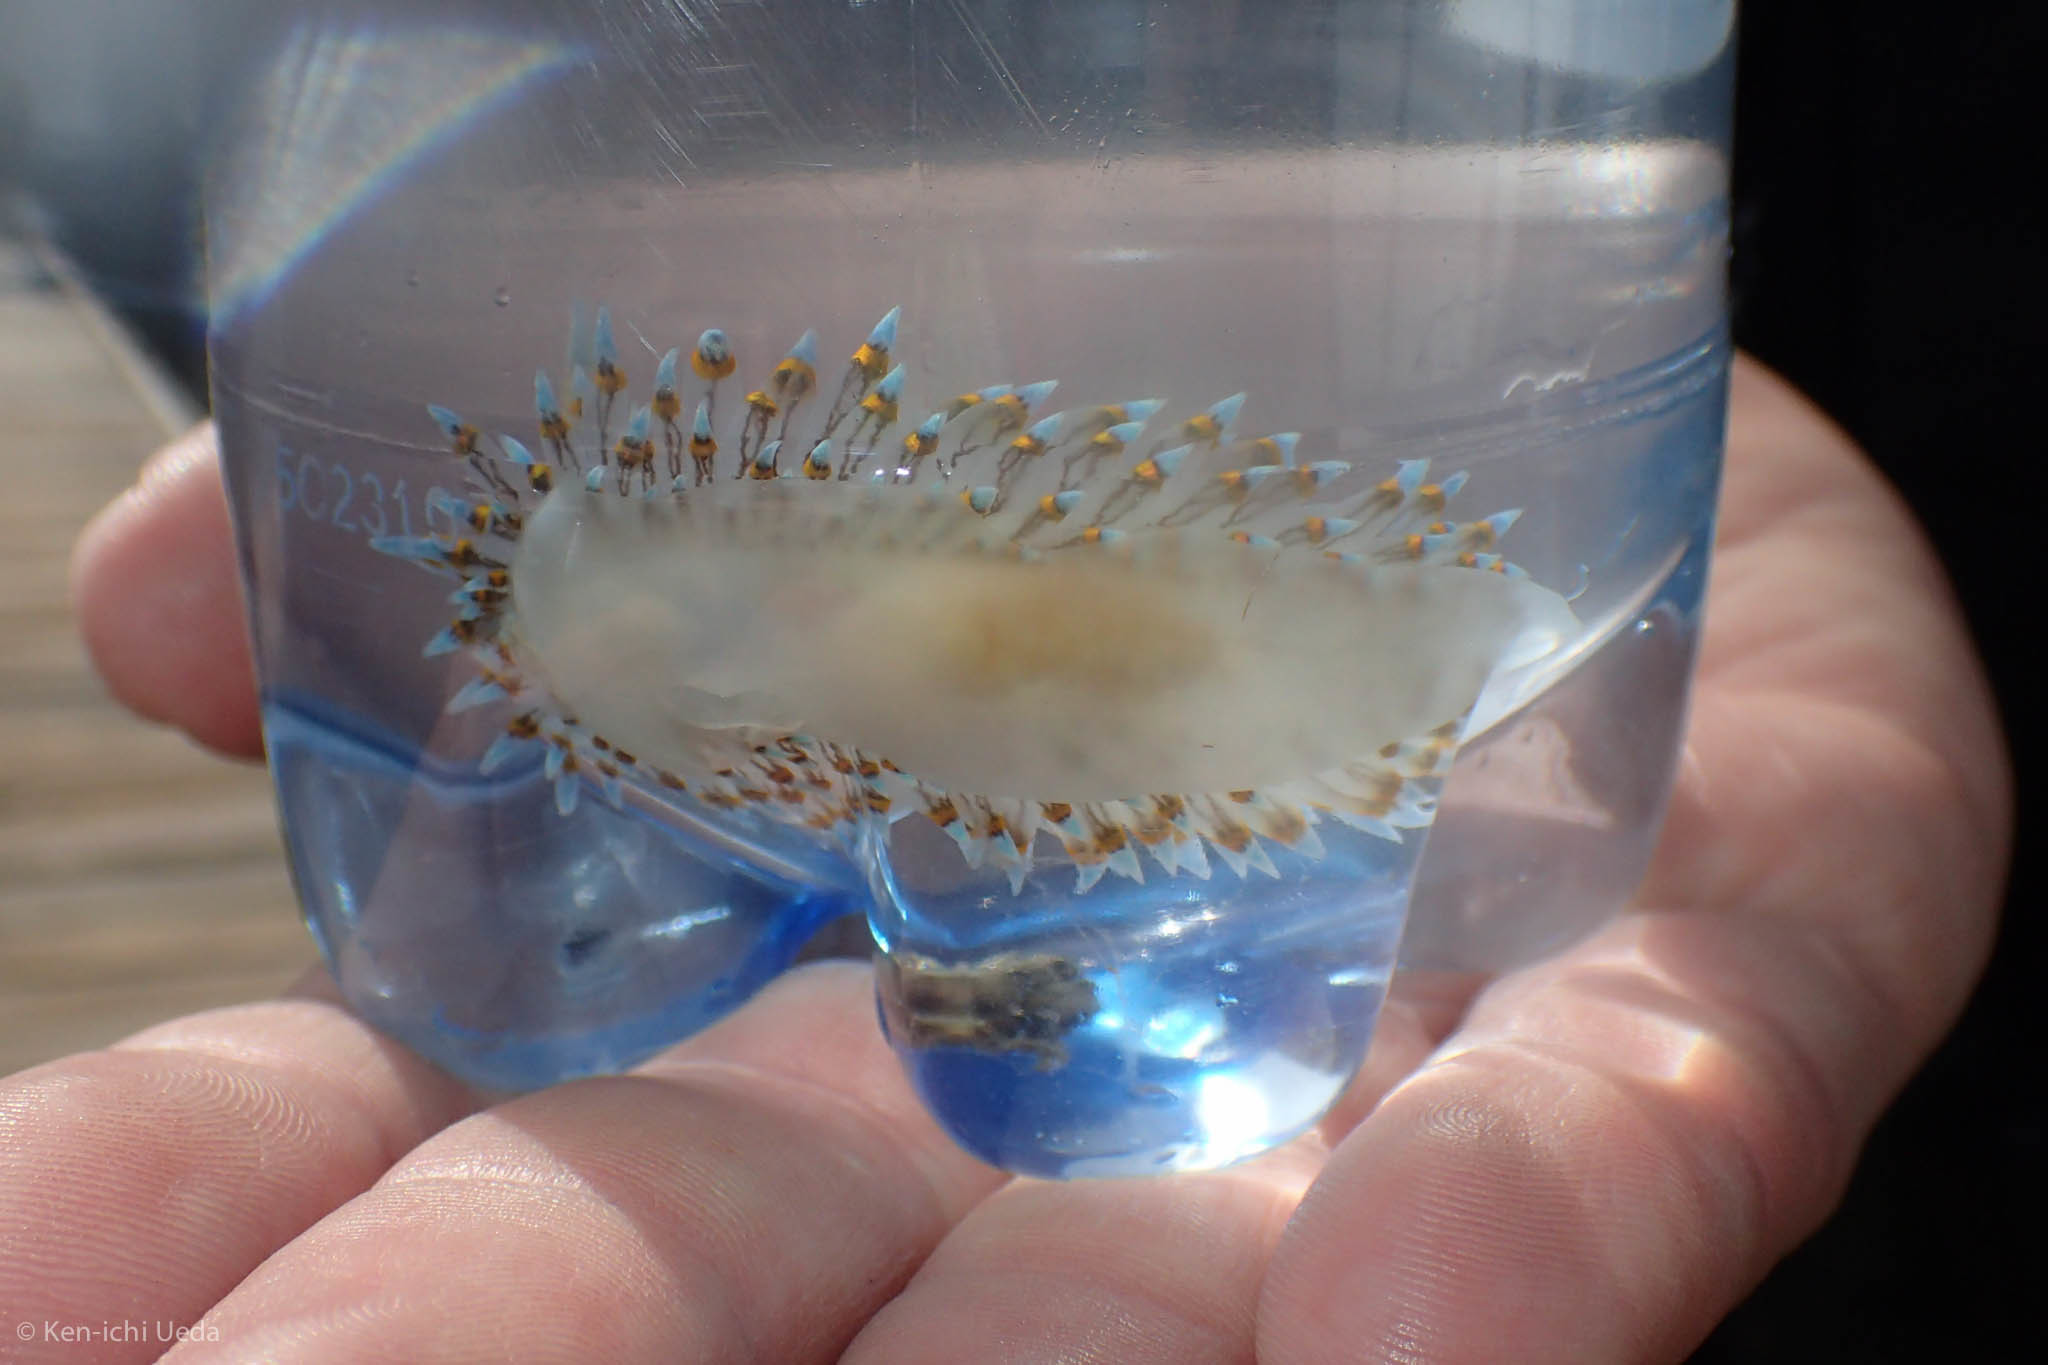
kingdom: Animalia
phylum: Mollusca
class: Gastropoda
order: Nudibranchia
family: Janolidae
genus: Antiopella
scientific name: Antiopella barbarensis
